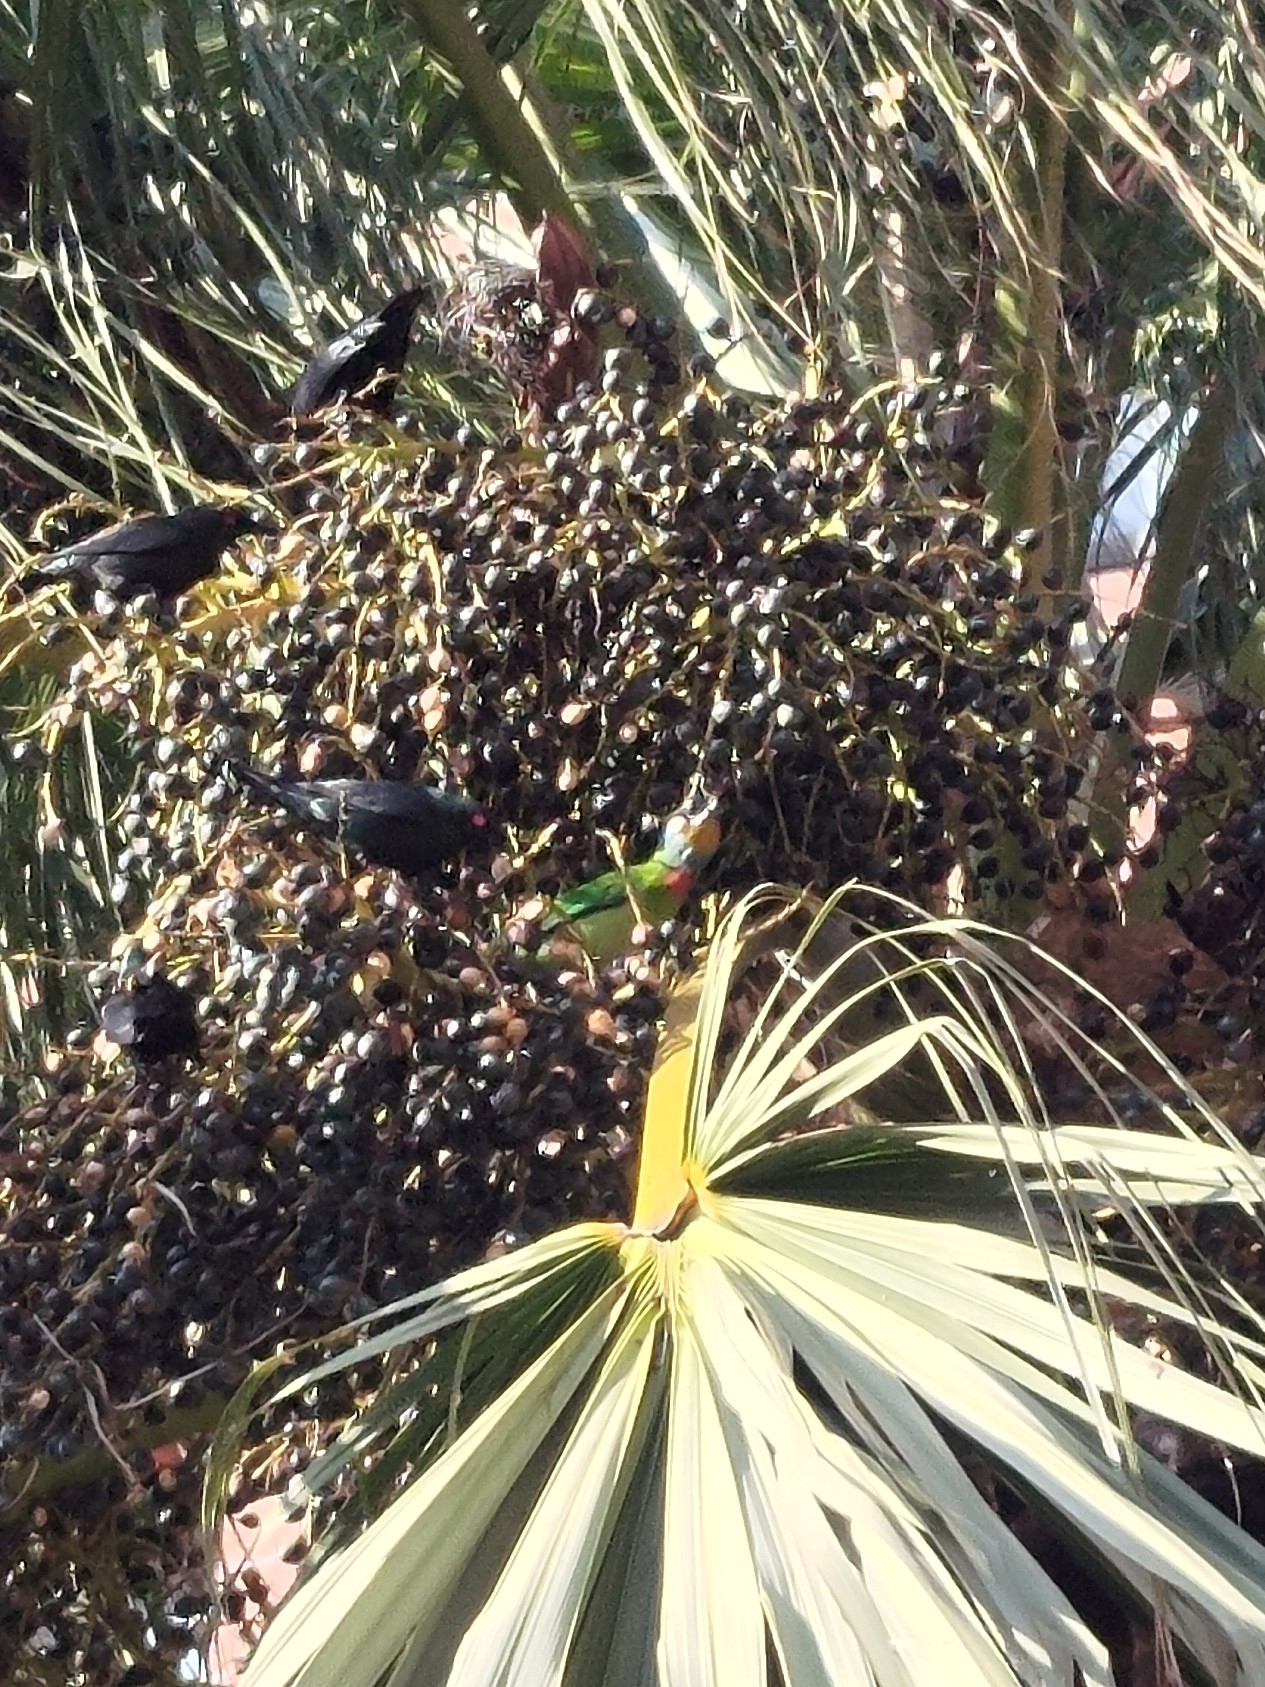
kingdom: Animalia
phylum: Chordata
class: Aves
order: Piciformes
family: Megalaimidae
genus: Psilopogon
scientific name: Psilopogon nuchalis
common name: Taiwan barbet
